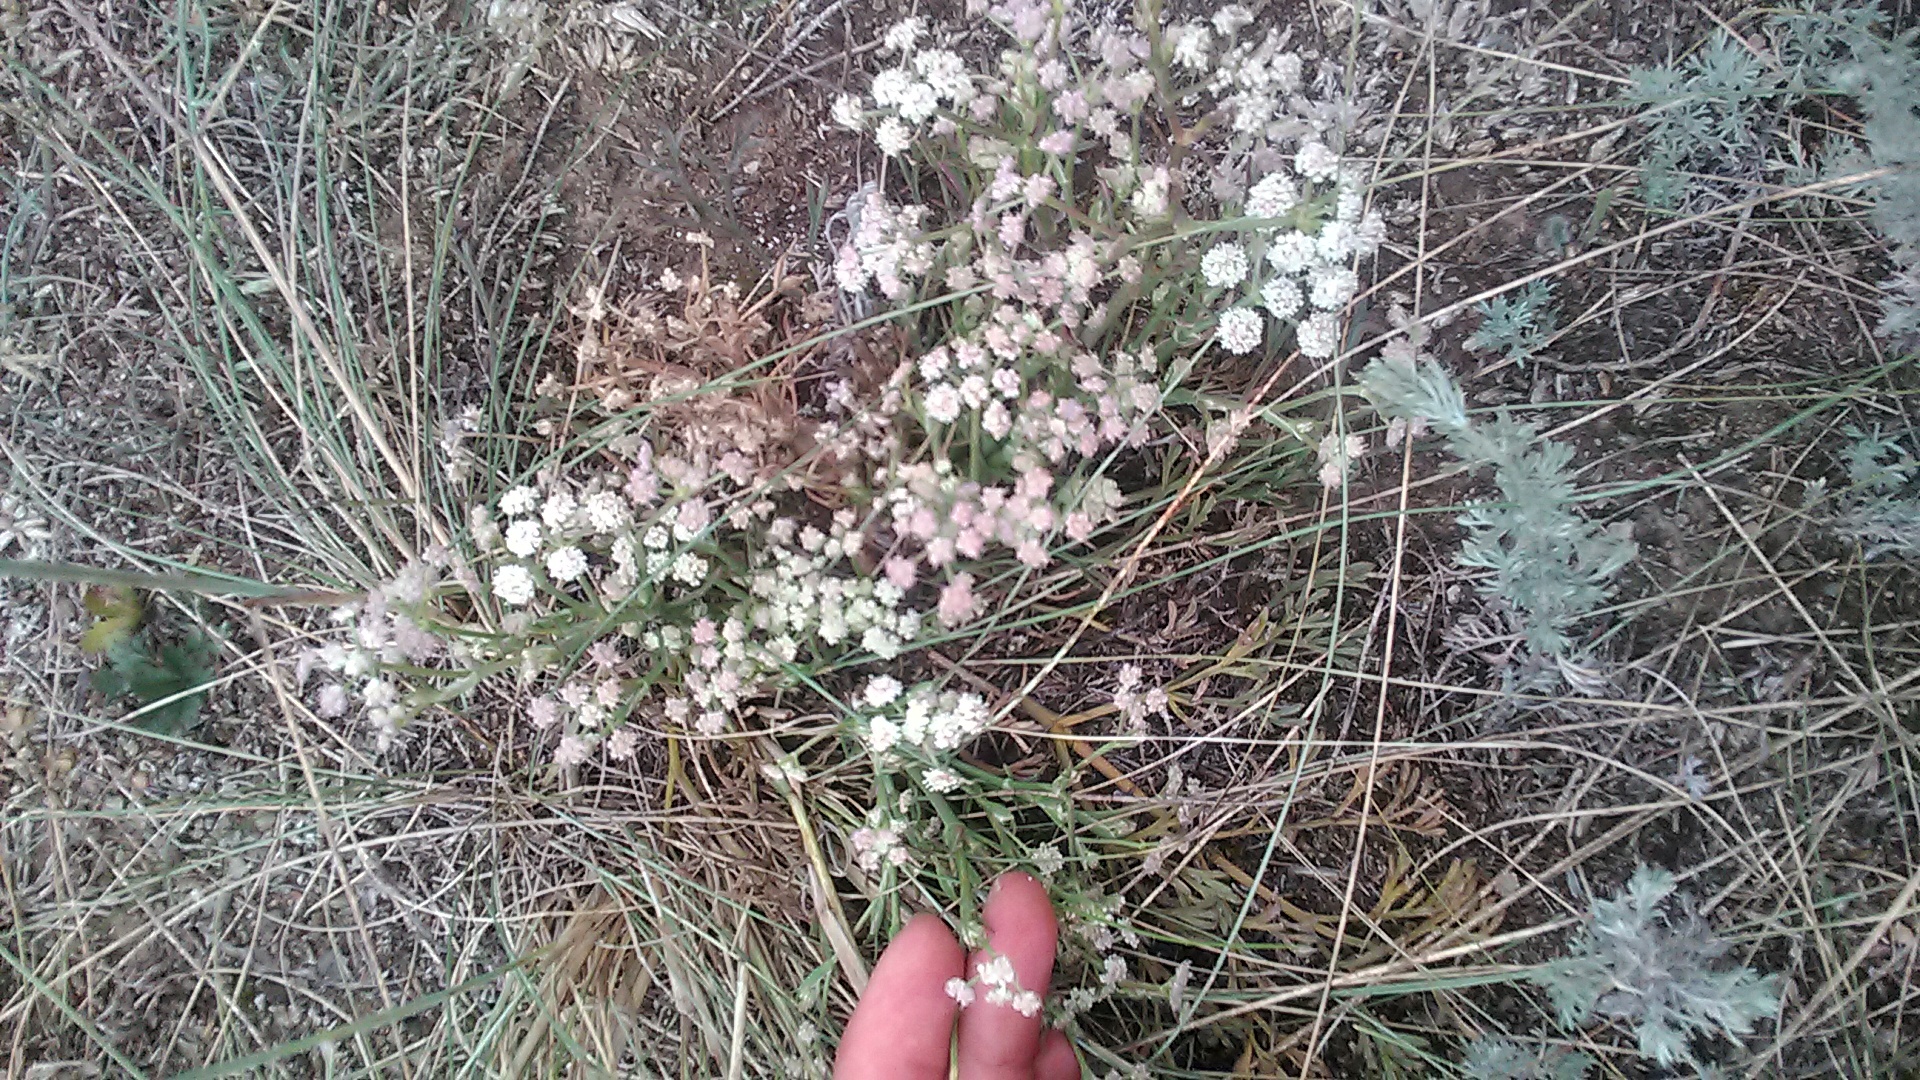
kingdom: Plantae
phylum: Tracheophyta
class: Magnoliopsida
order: Apiales
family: Apiaceae
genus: Seseli
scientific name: Seseli arenarium
